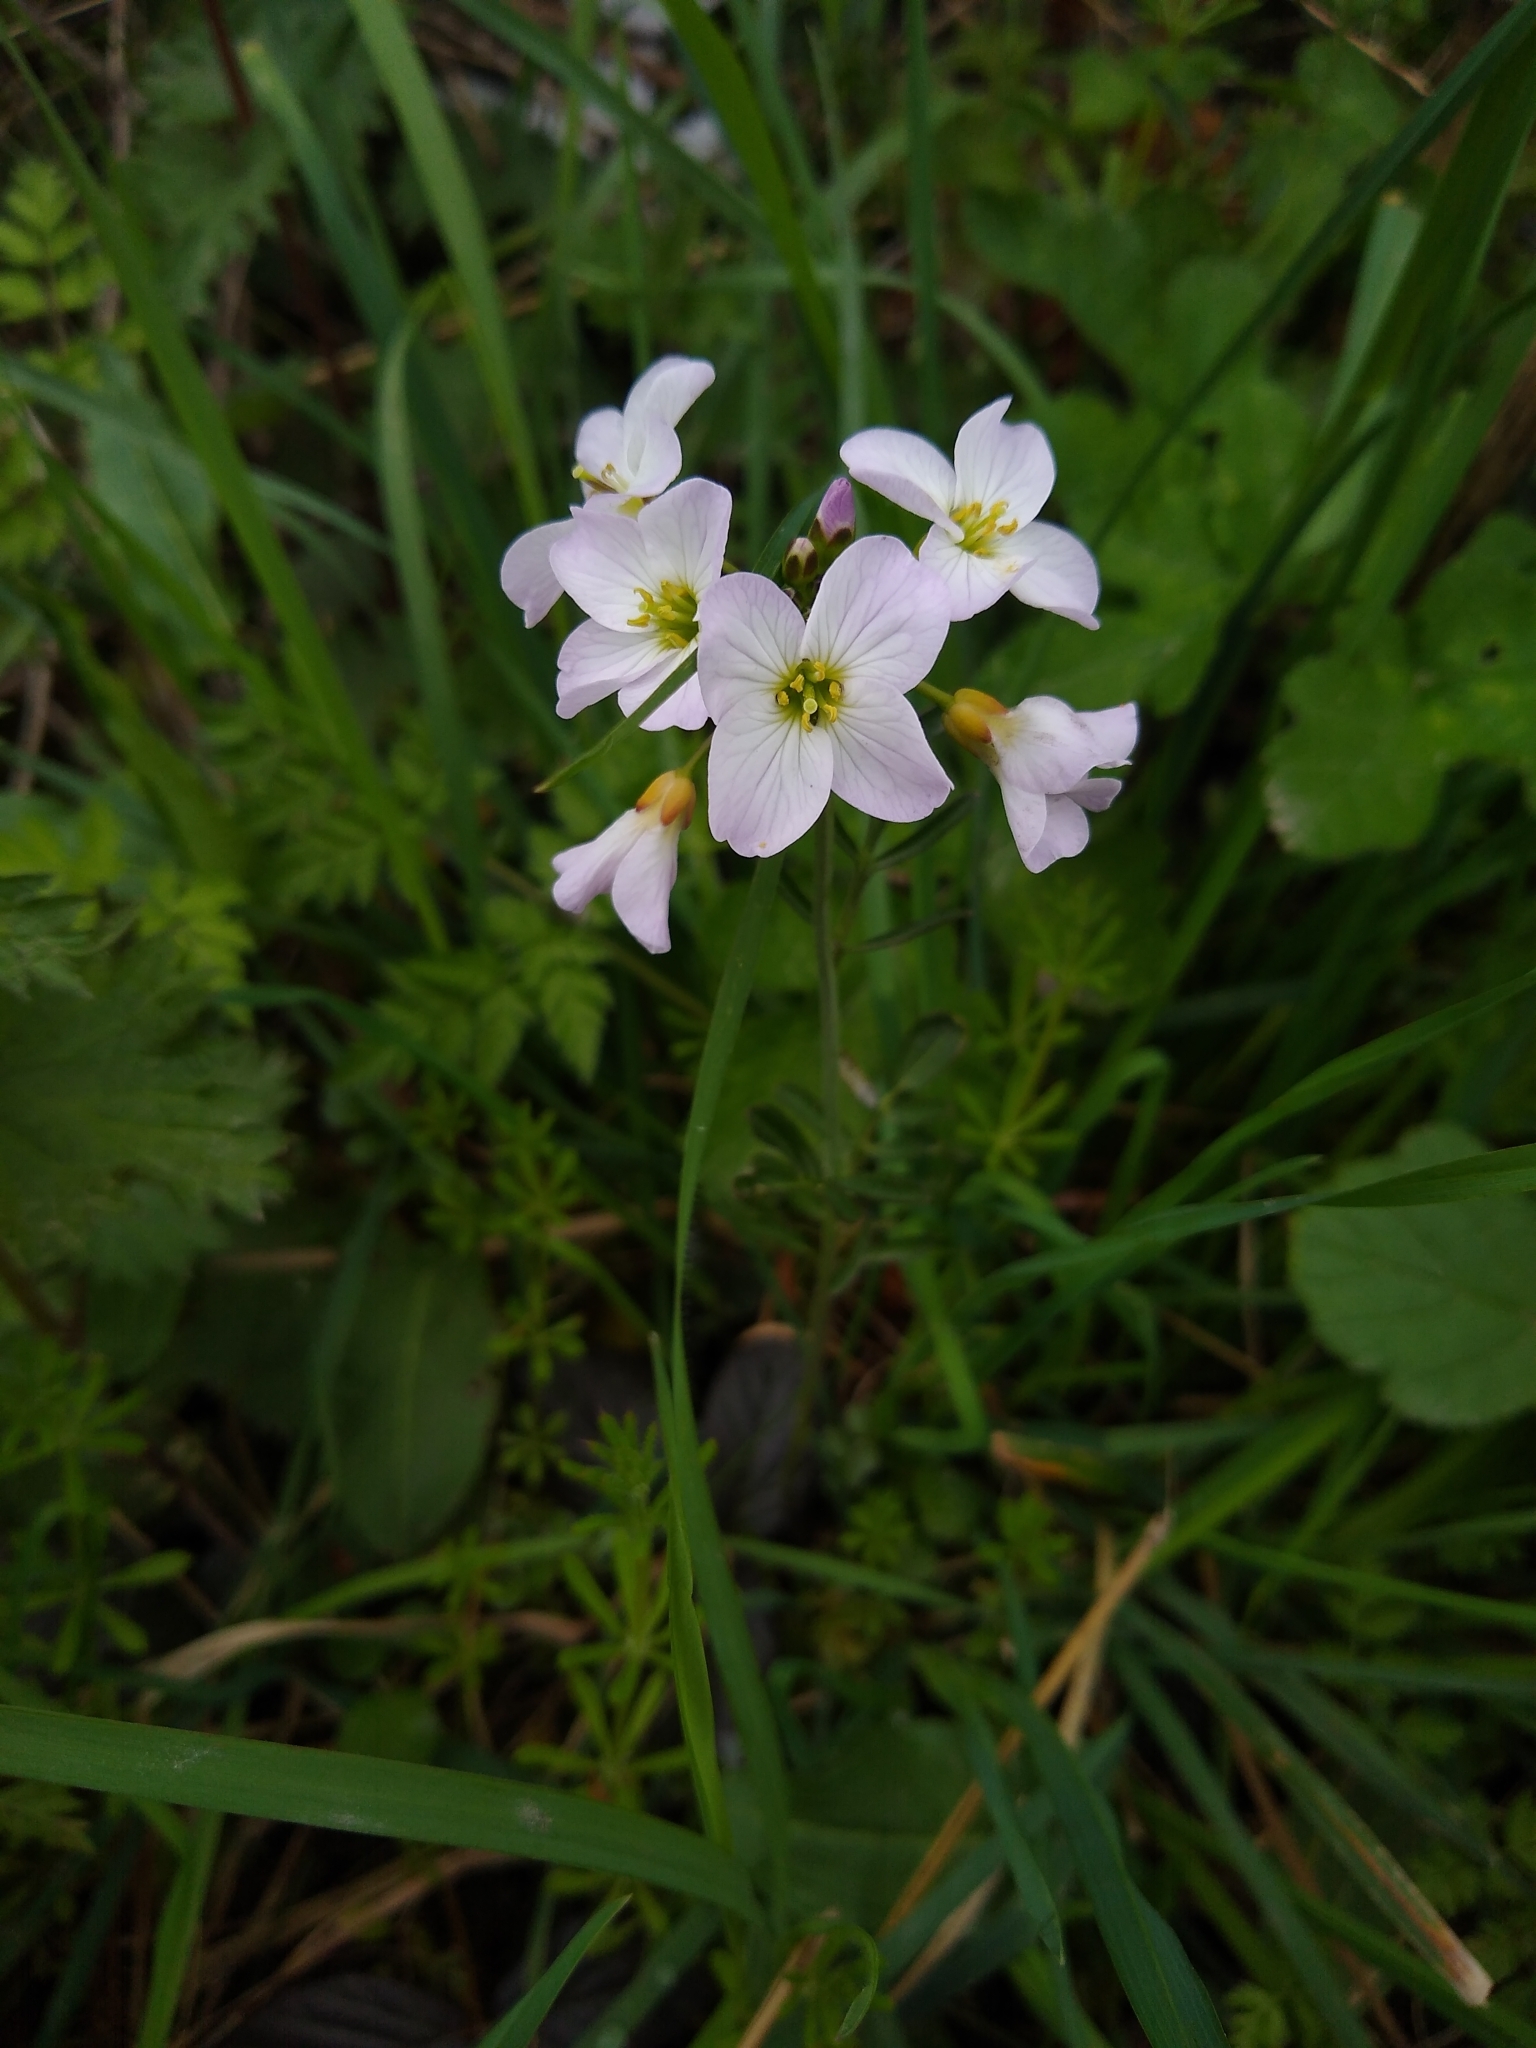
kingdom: Plantae
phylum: Tracheophyta
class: Magnoliopsida
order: Brassicales
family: Brassicaceae
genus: Cardamine
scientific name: Cardamine pratensis
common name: Cuckoo flower
